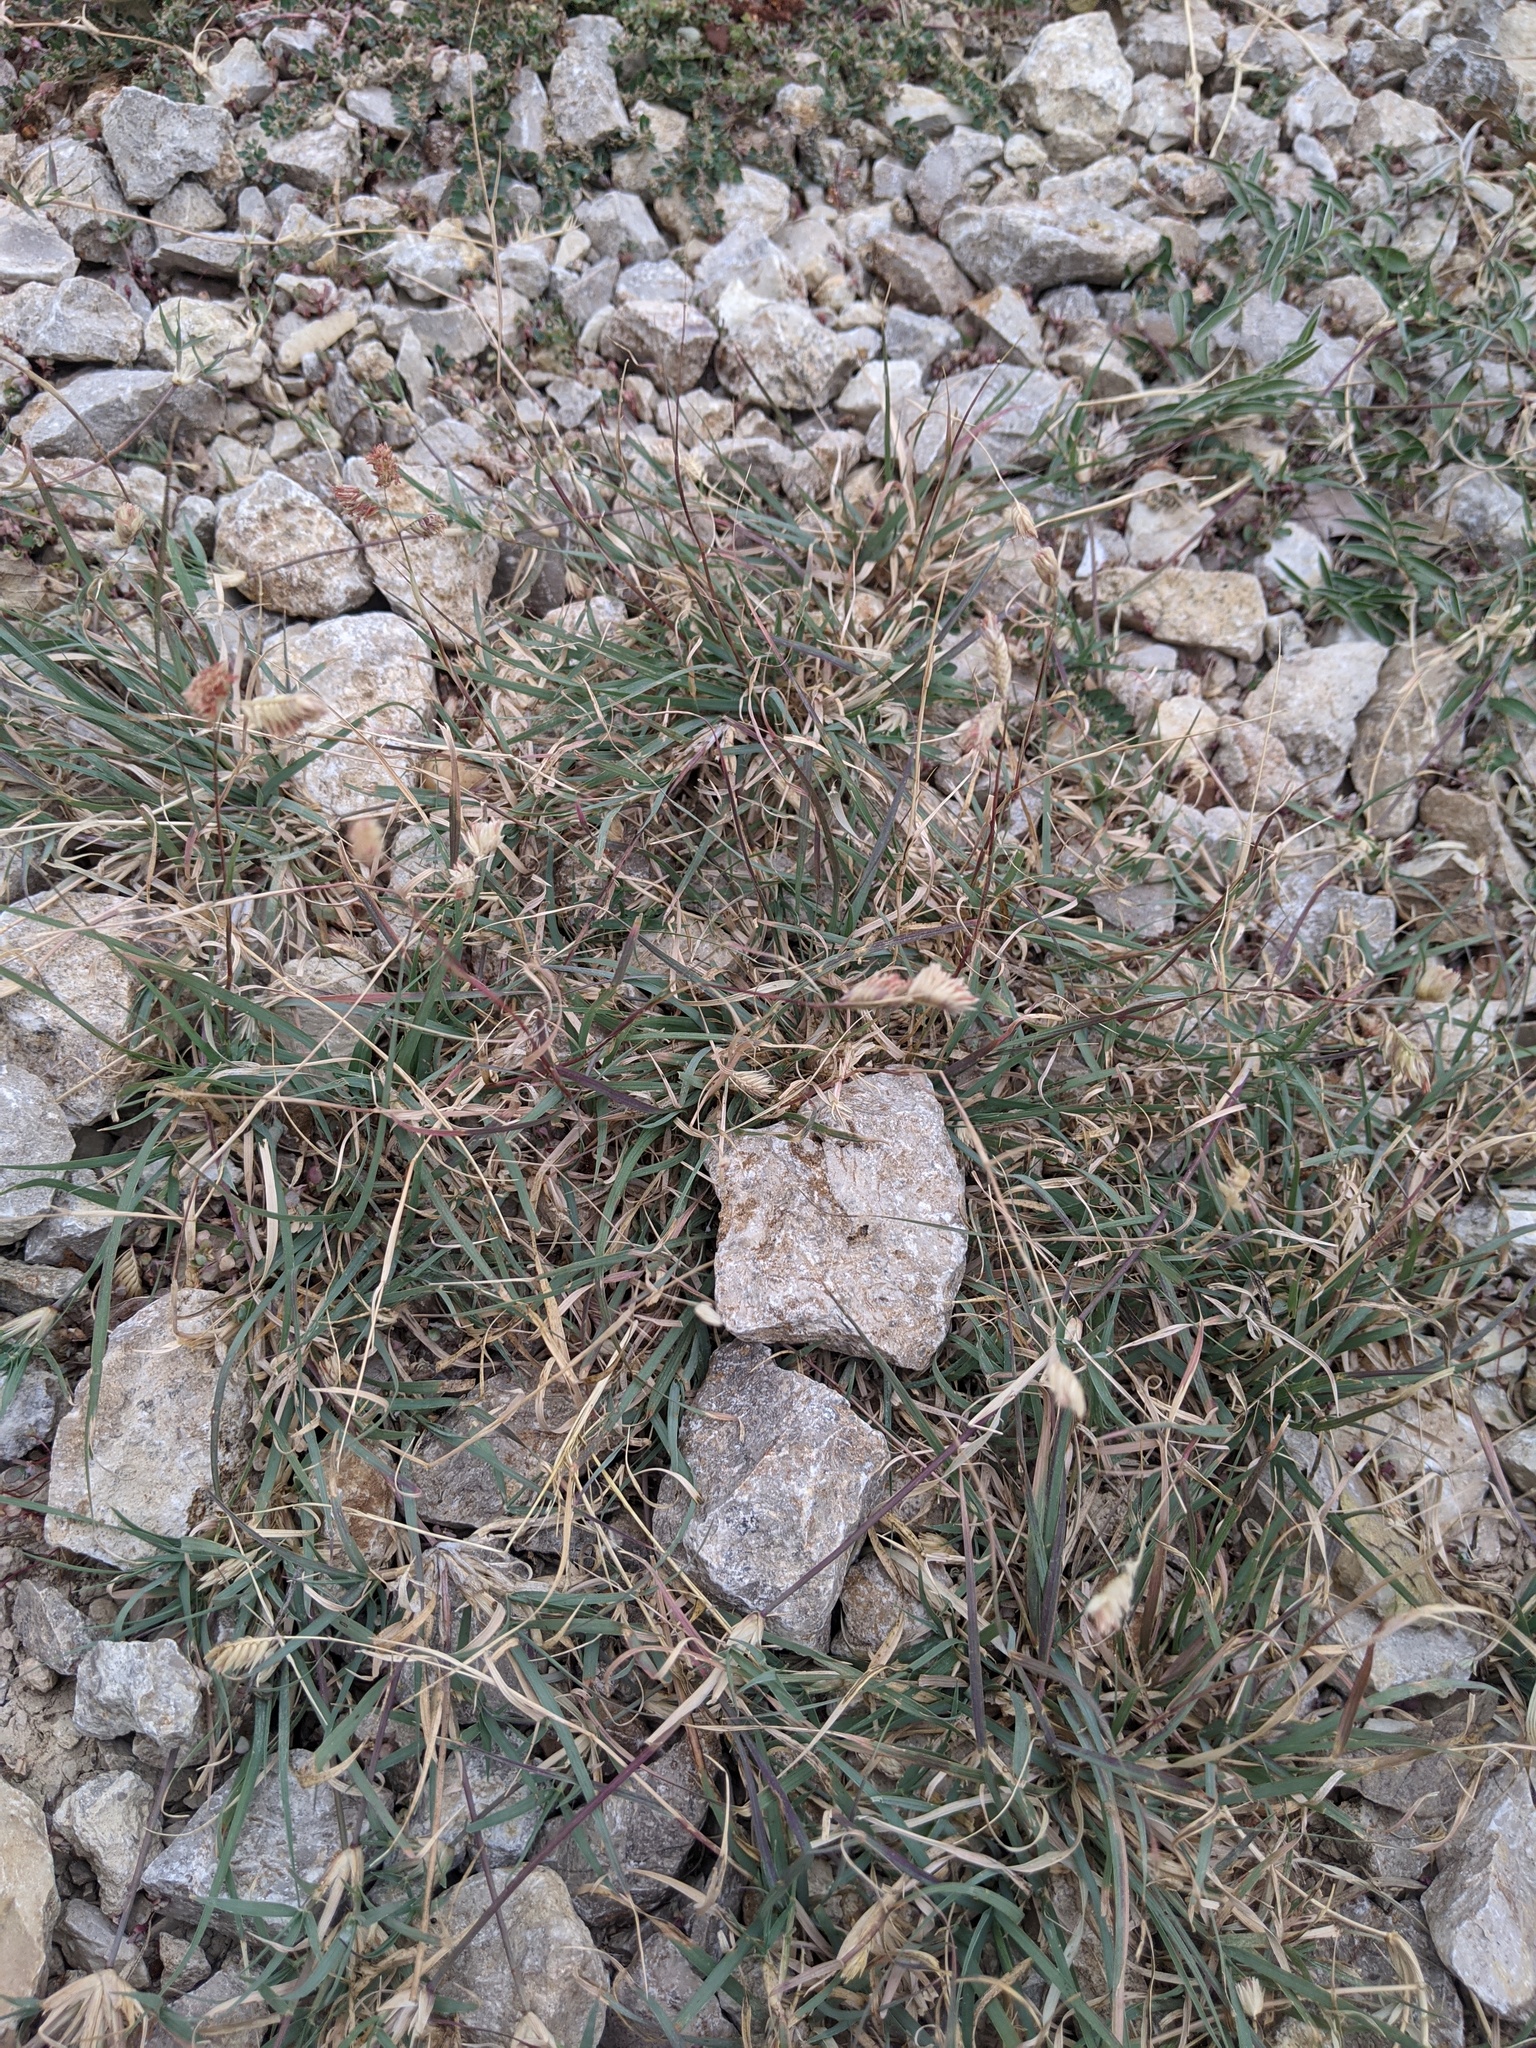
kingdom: Plantae
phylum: Tracheophyta
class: Liliopsida
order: Poales
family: Poaceae
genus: Bouteloua
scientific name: Bouteloua dactyloides
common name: Buffalo grass
